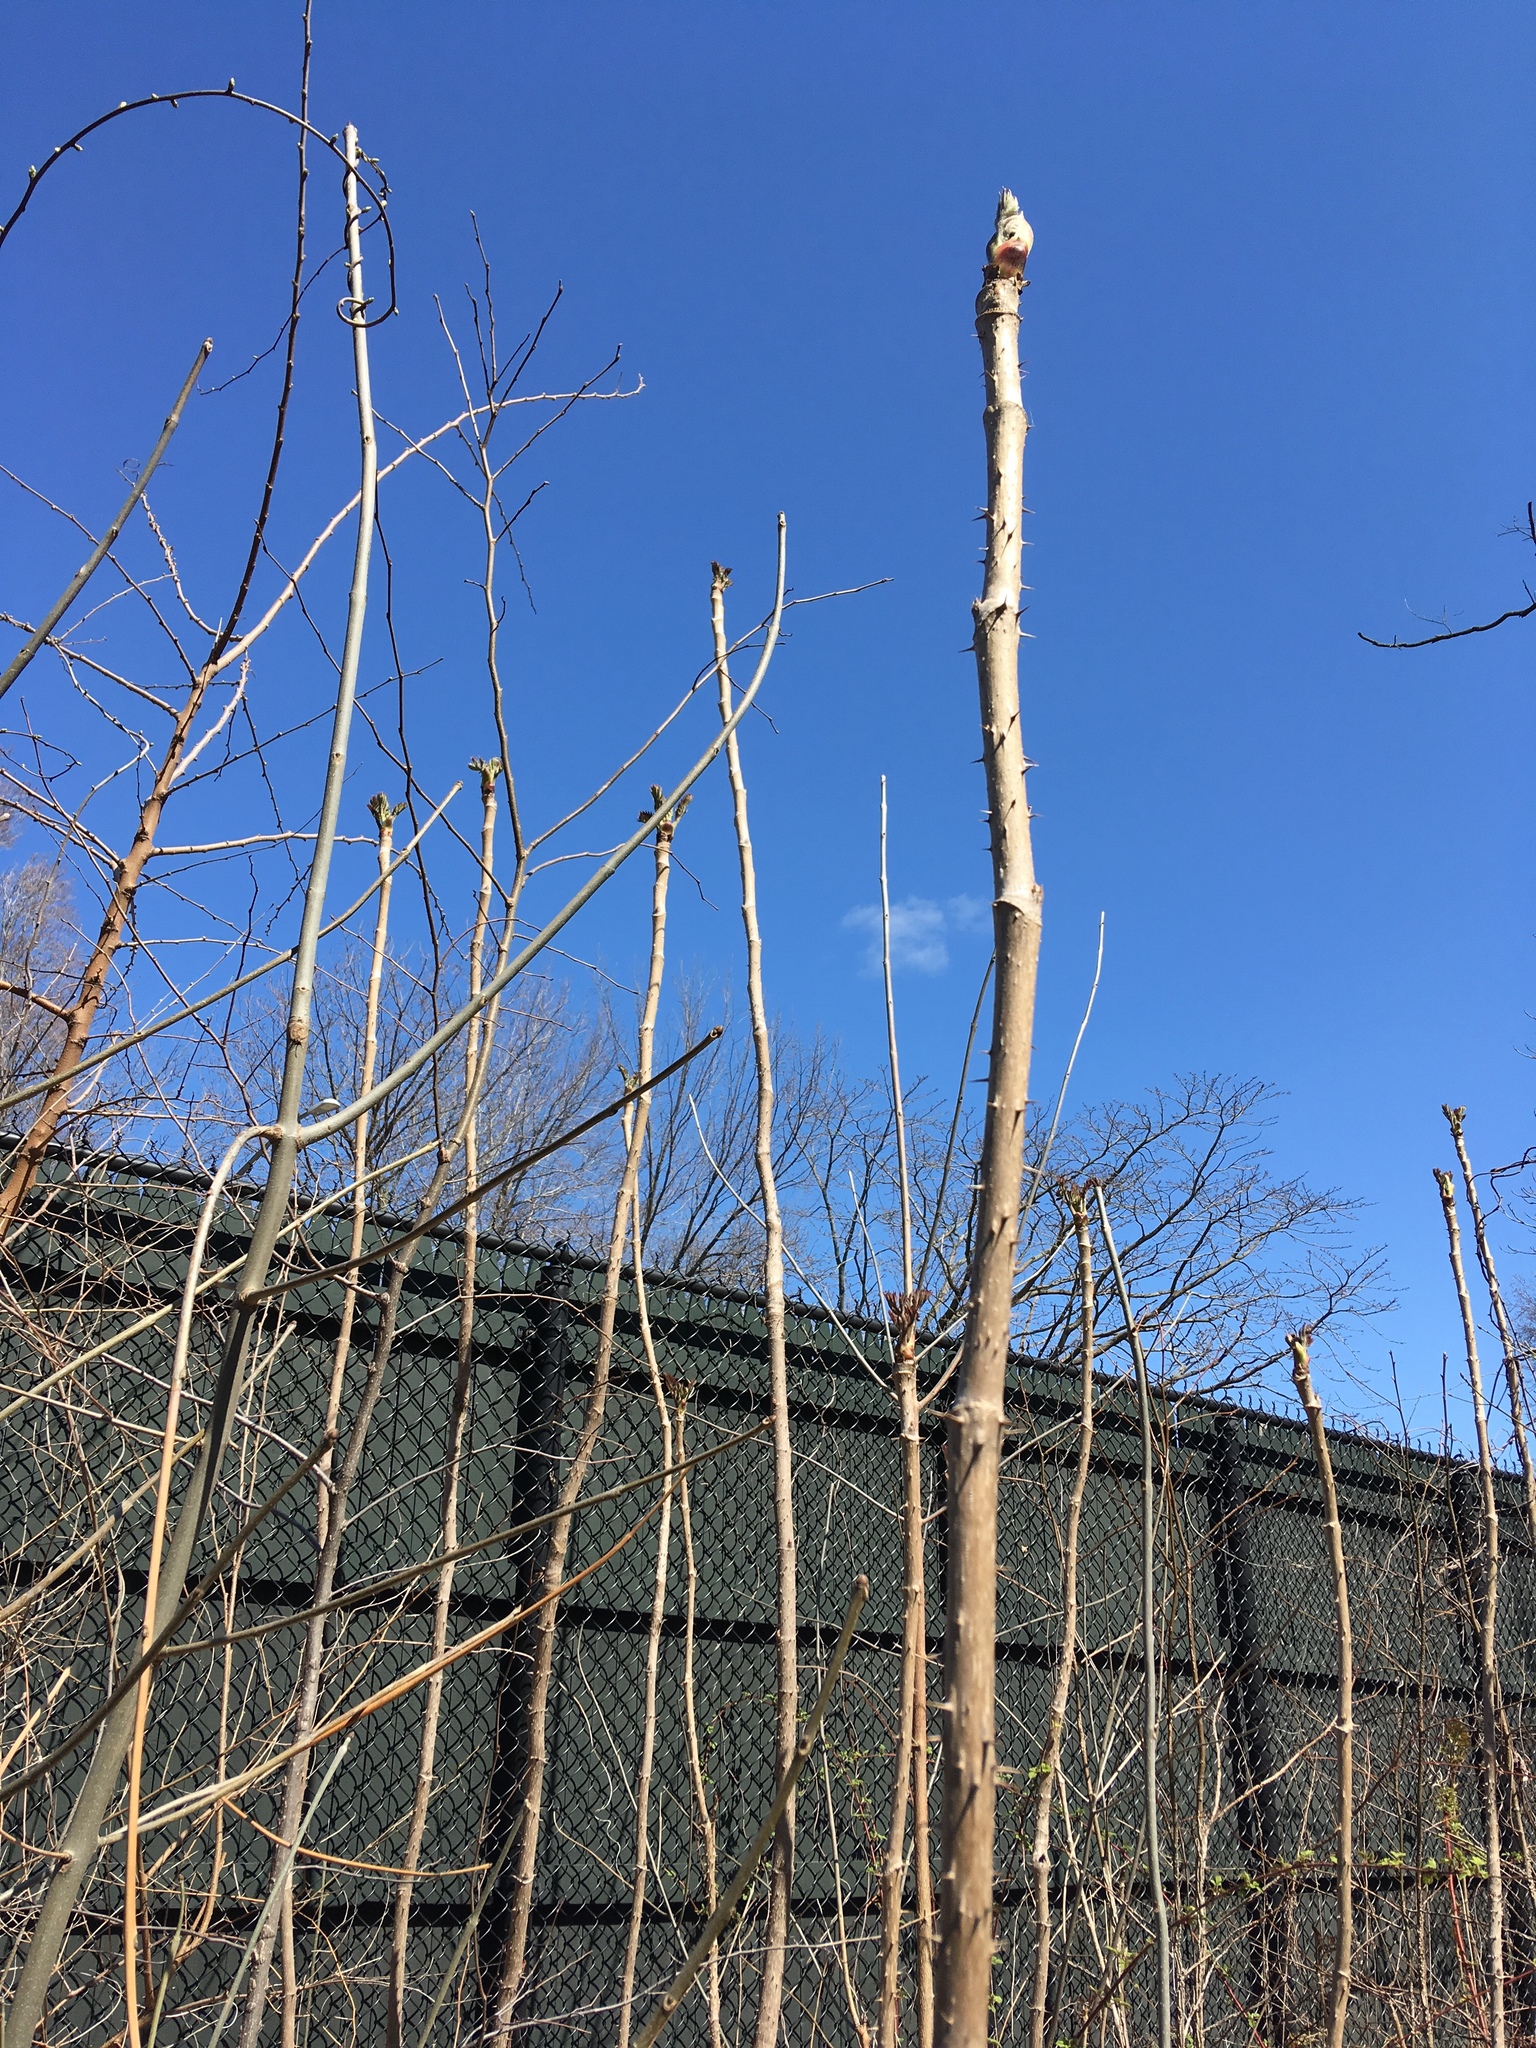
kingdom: Plantae
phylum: Tracheophyta
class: Magnoliopsida
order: Apiales
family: Araliaceae
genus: Aralia
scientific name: Aralia elata
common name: Japanese angelica-tree
